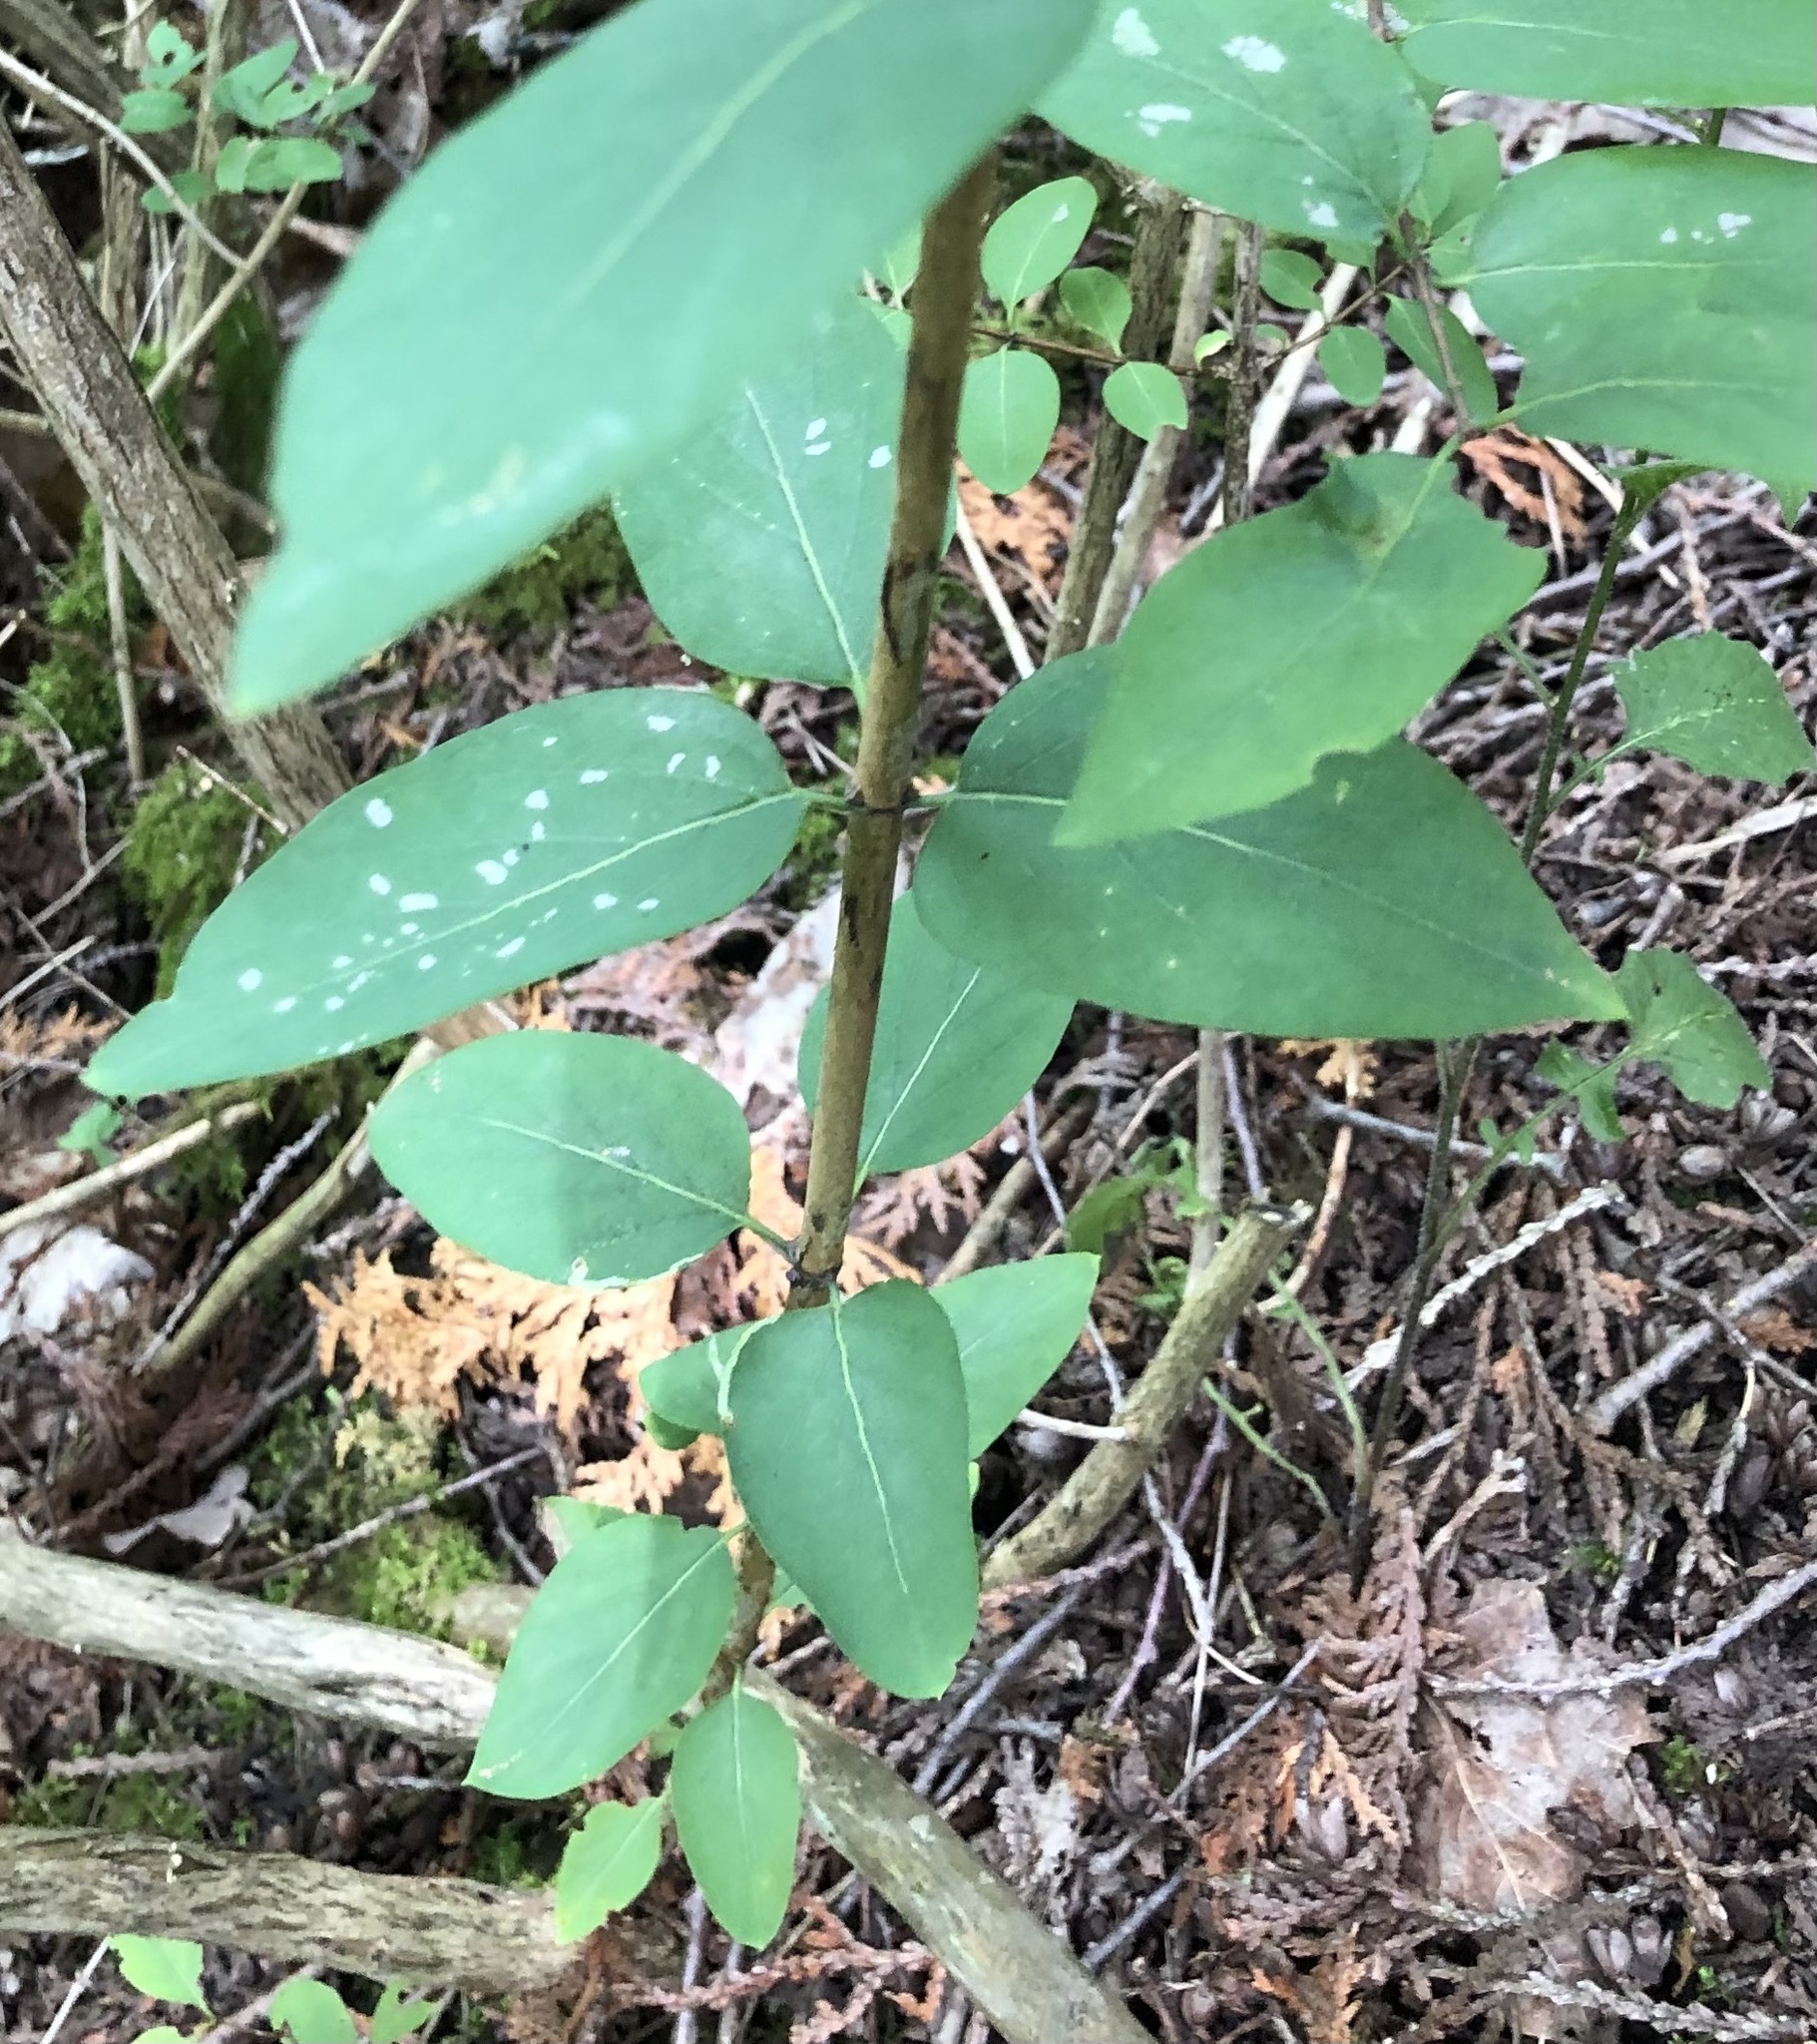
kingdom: Plantae
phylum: Tracheophyta
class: Magnoliopsida
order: Dipsacales
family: Caprifoliaceae
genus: Lonicera
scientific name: Lonicera tatarica
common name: Tatarian honeysuckle
